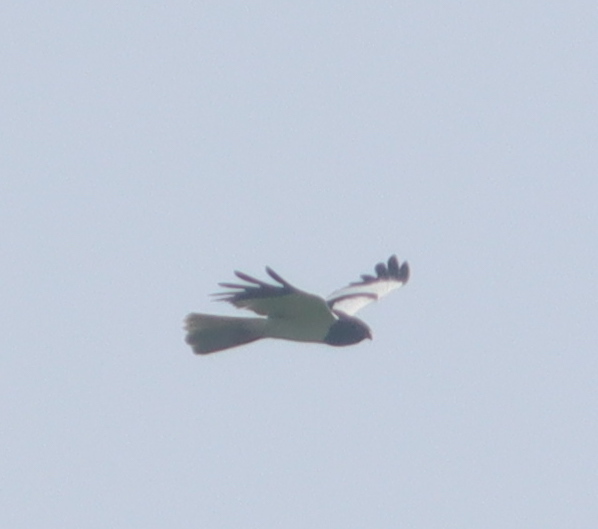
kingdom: Animalia
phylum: Chordata
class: Aves
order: Accipitriformes
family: Accipitridae
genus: Circus
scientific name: Circus melanoleucos
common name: Pied harrier
